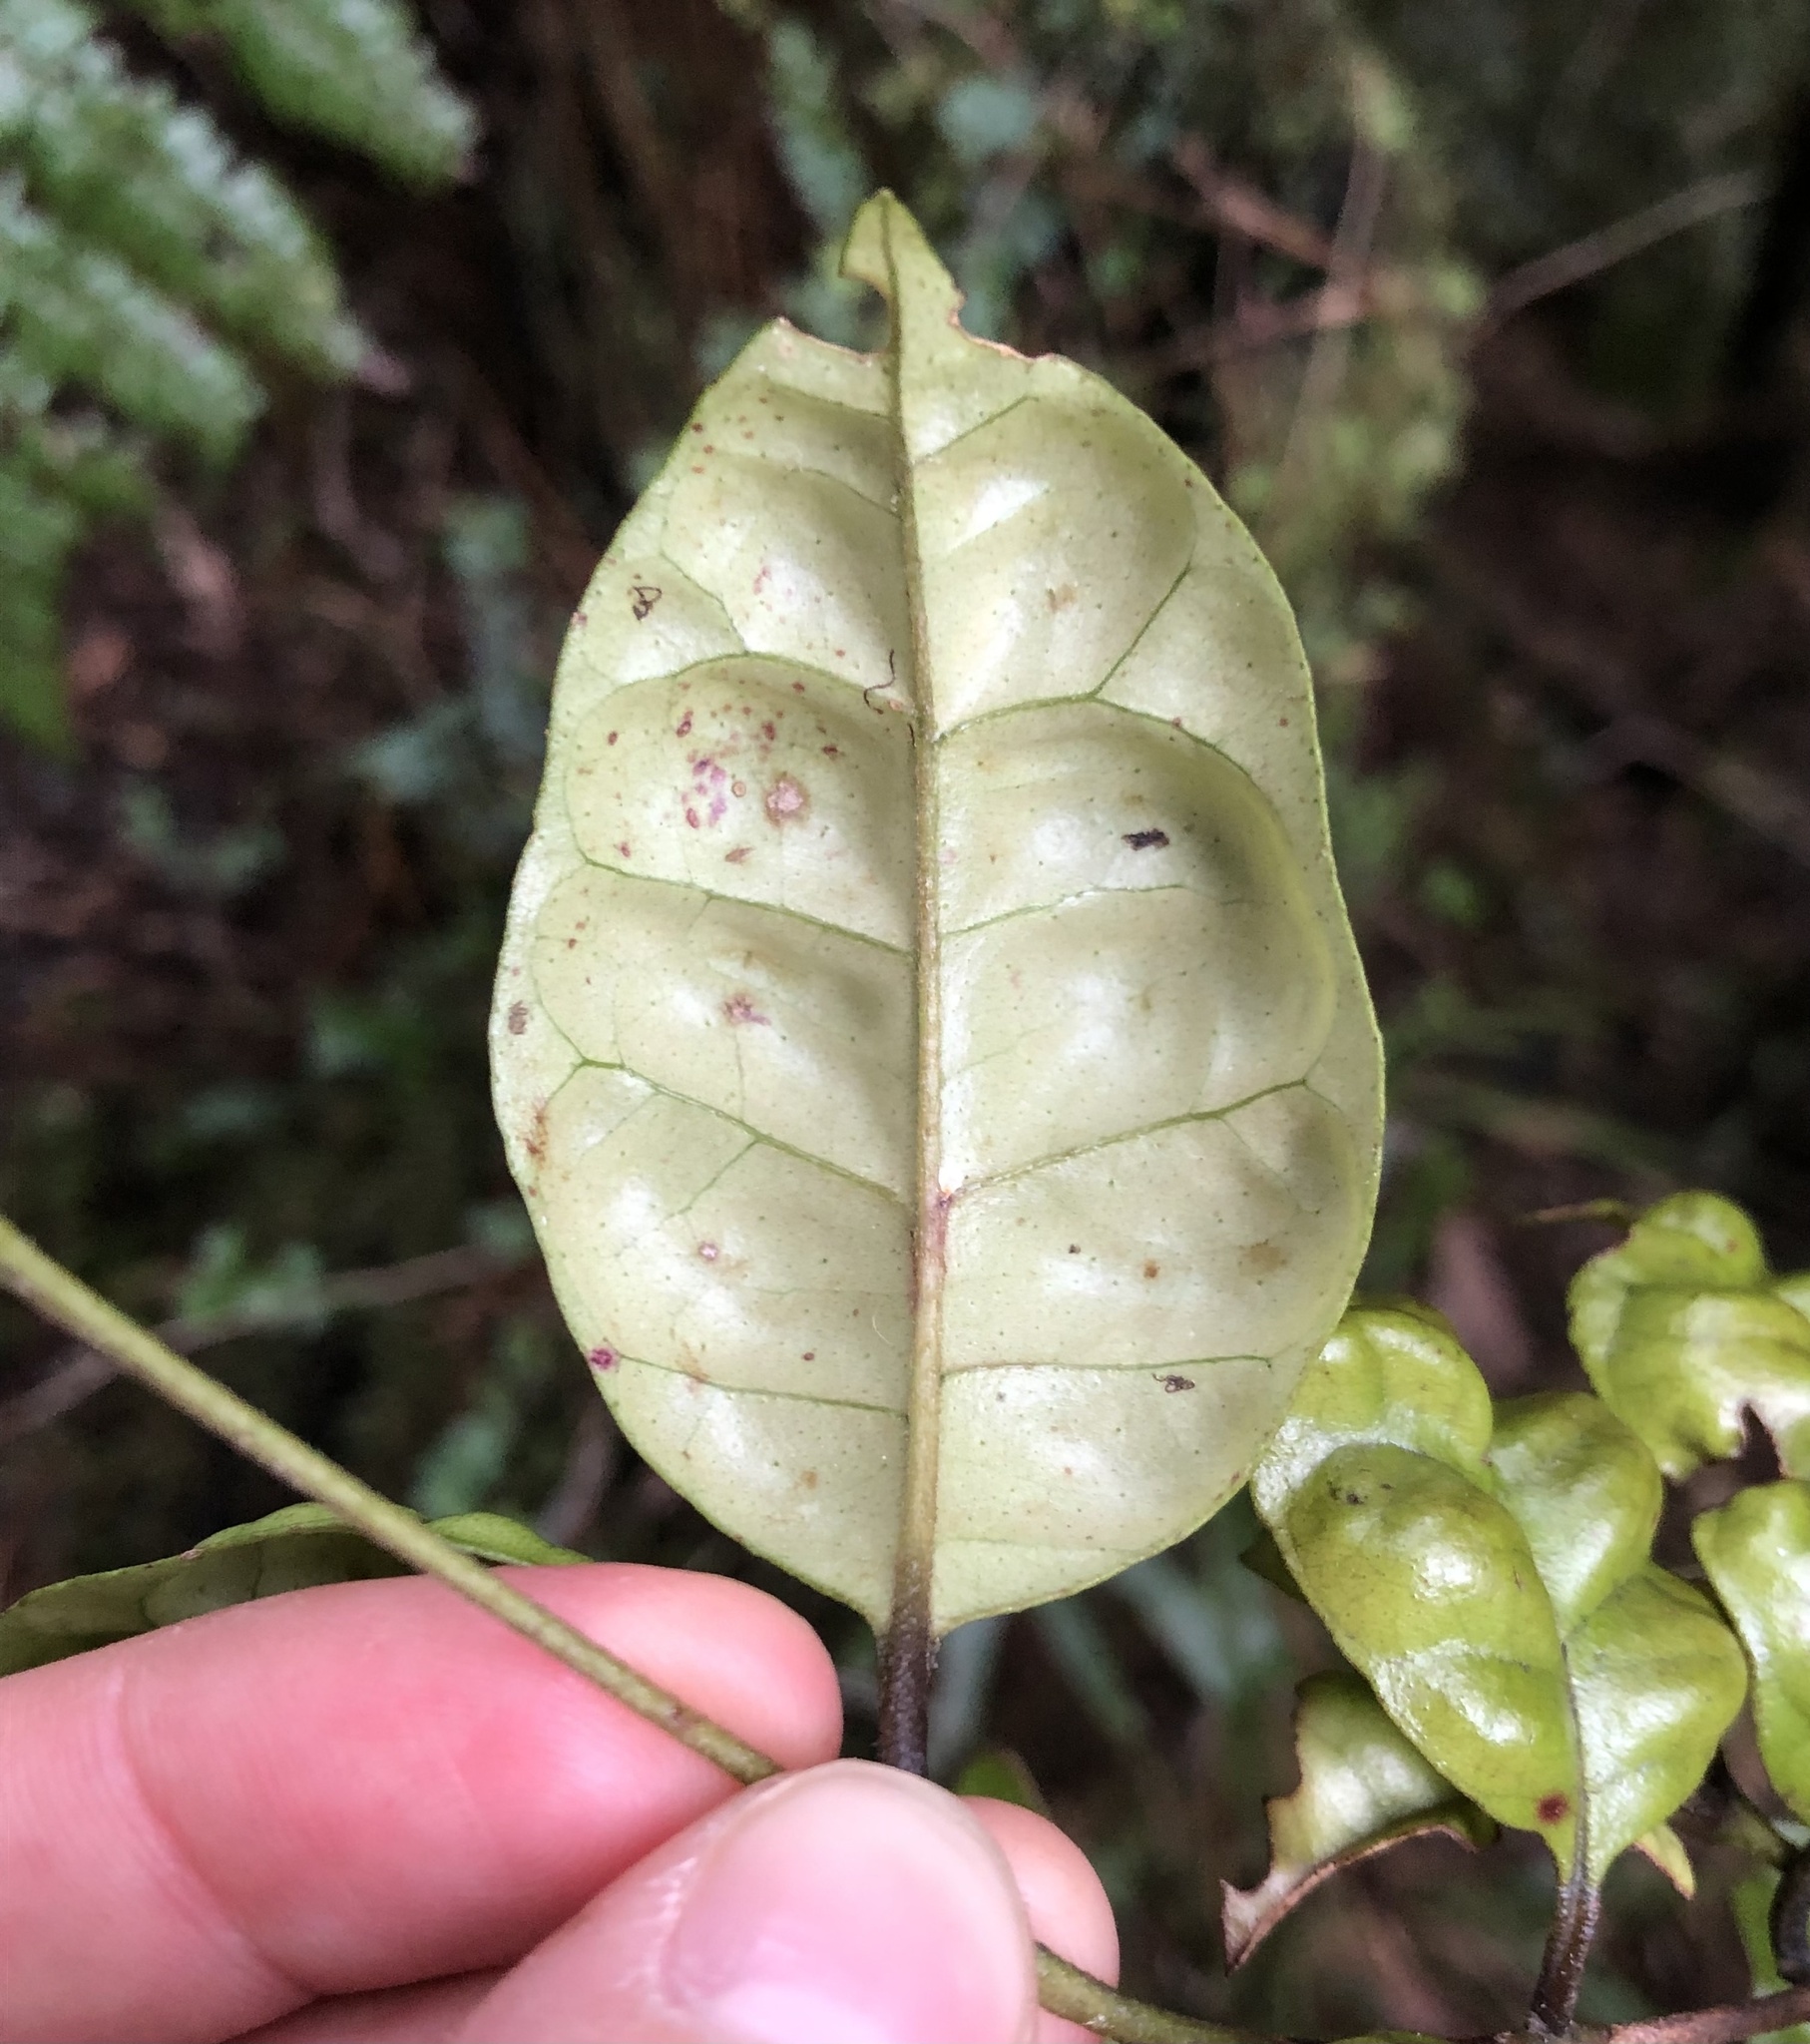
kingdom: Plantae
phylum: Tracheophyta
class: Magnoliopsida
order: Myrtales
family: Myrtaceae
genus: Lophomyrtus
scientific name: Lophomyrtus bullata
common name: Rama rama
